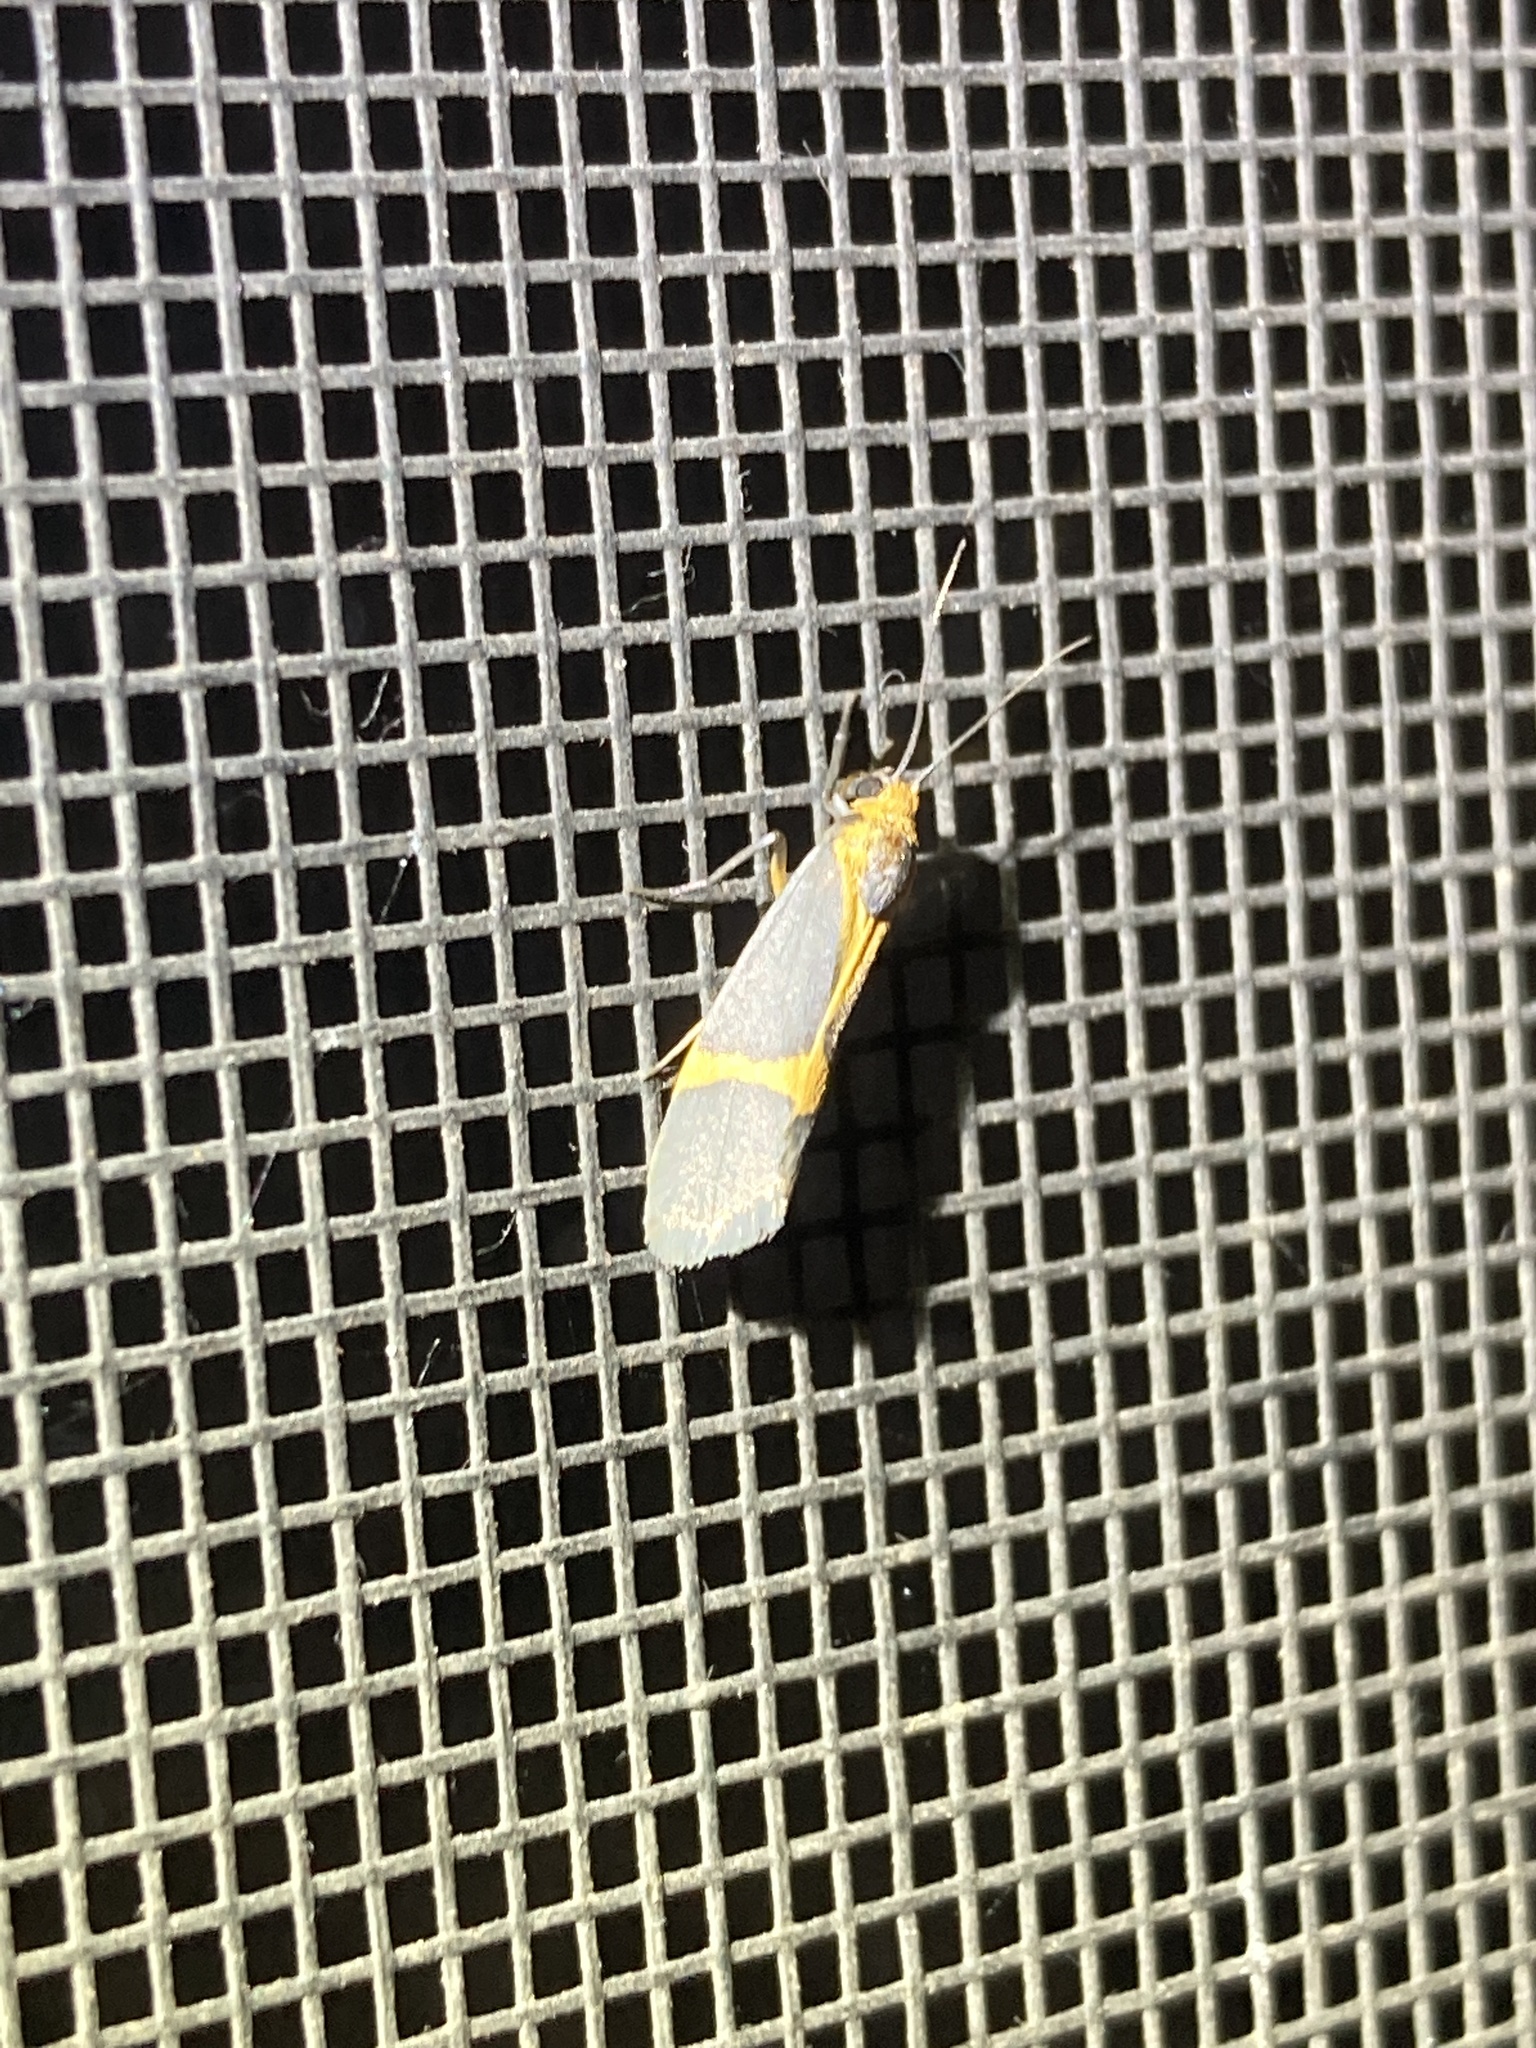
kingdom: Animalia
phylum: Arthropoda
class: Insecta
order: Lepidoptera
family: Erebidae
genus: Cisthene
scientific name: Cisthene tenuifascia
